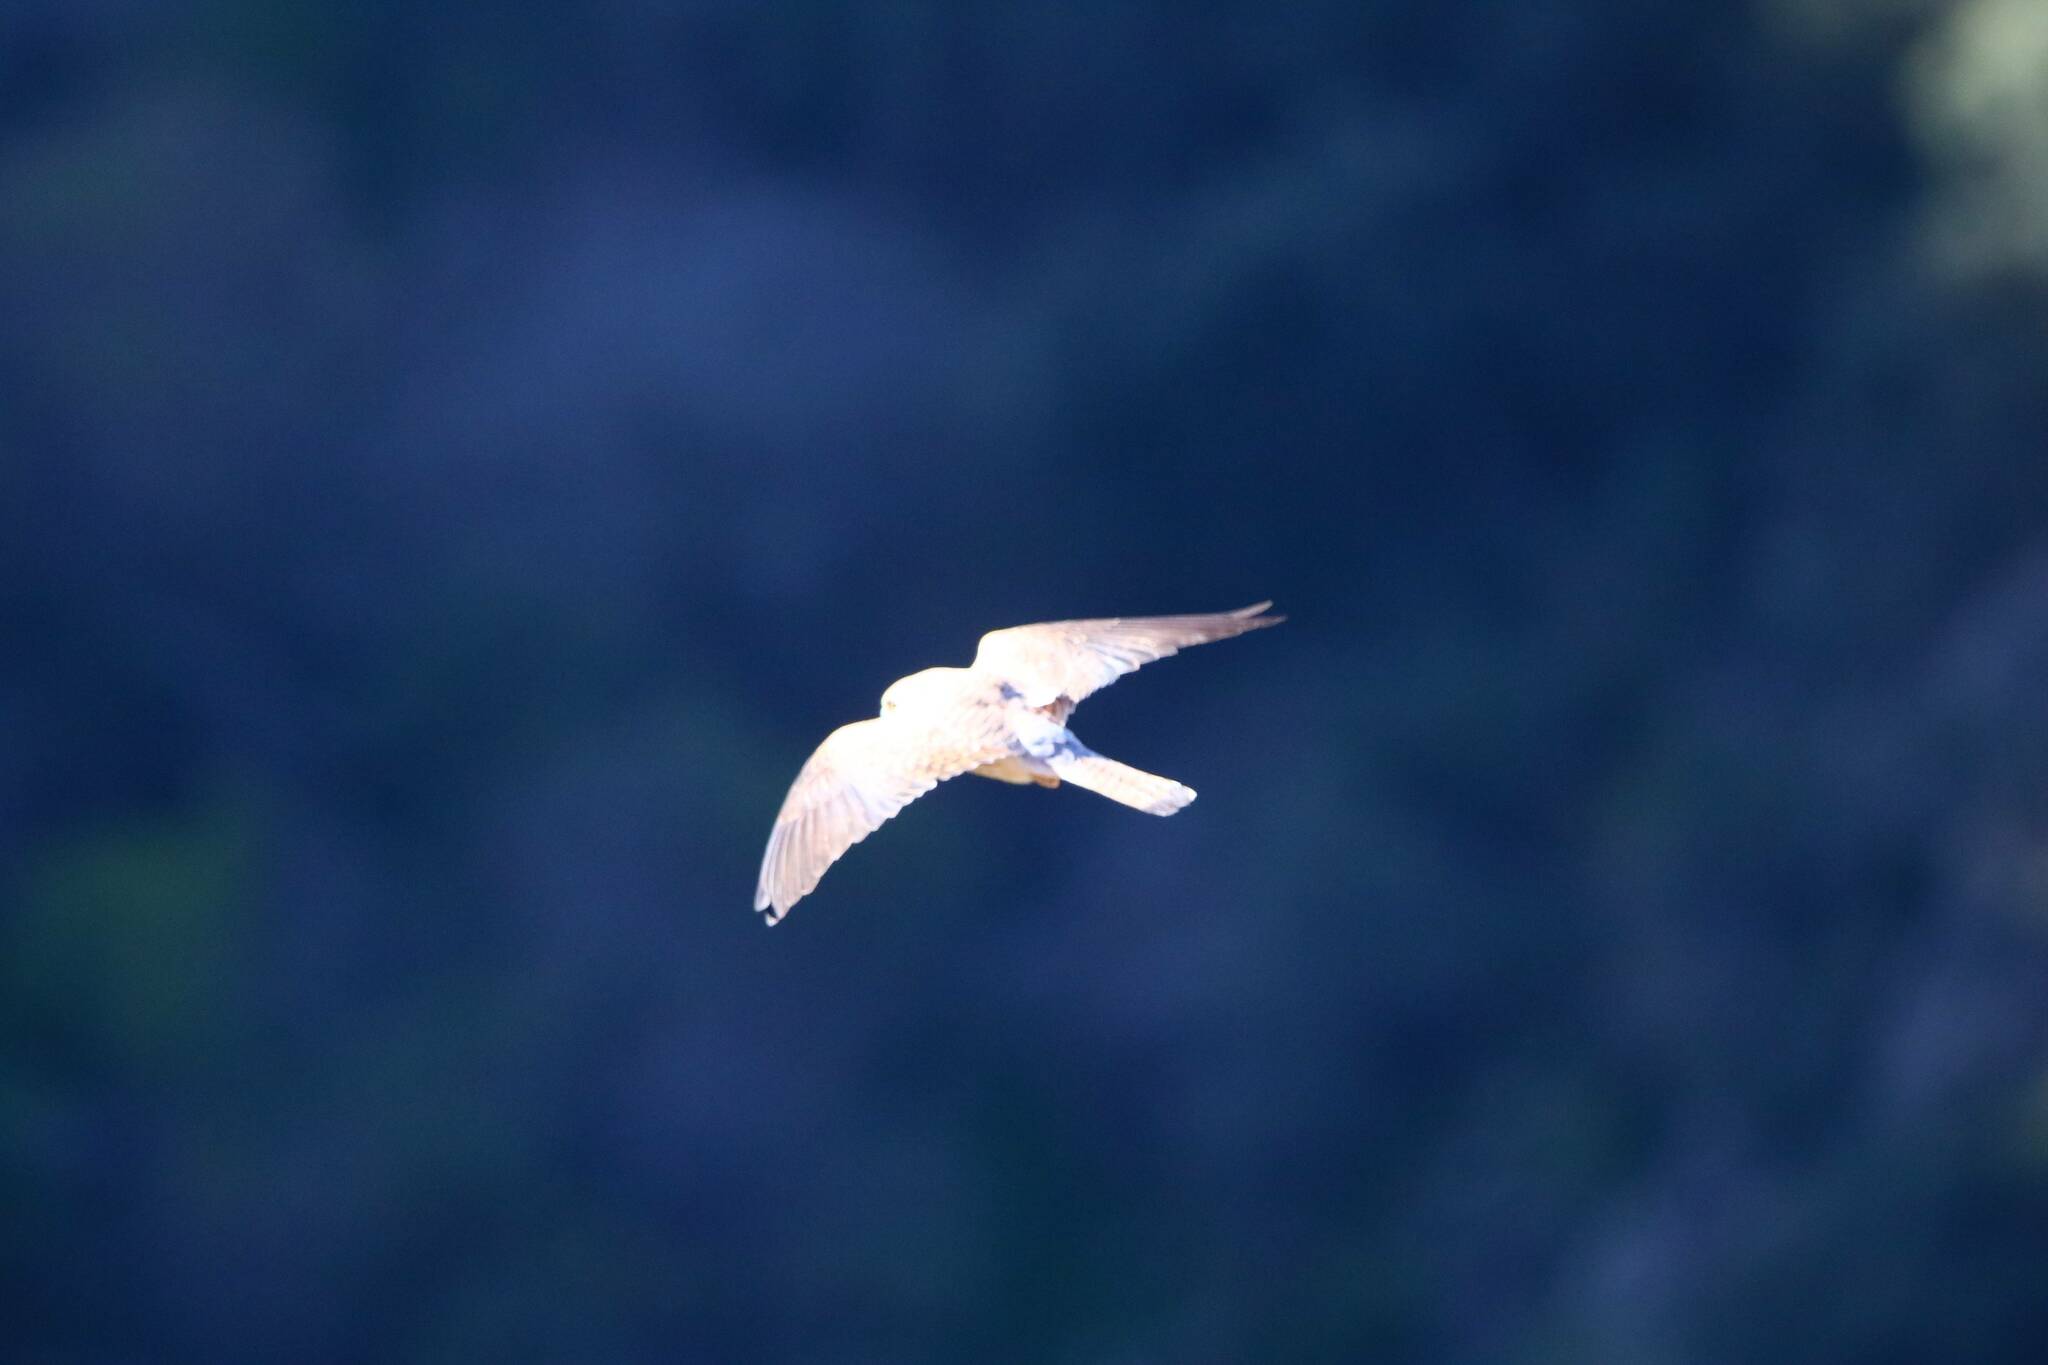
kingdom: Animalia
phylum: Chordata
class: Aves
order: Falconiformes
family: Falconidae
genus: Falco
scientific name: Falco naumanni
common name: Lesser kestrel
